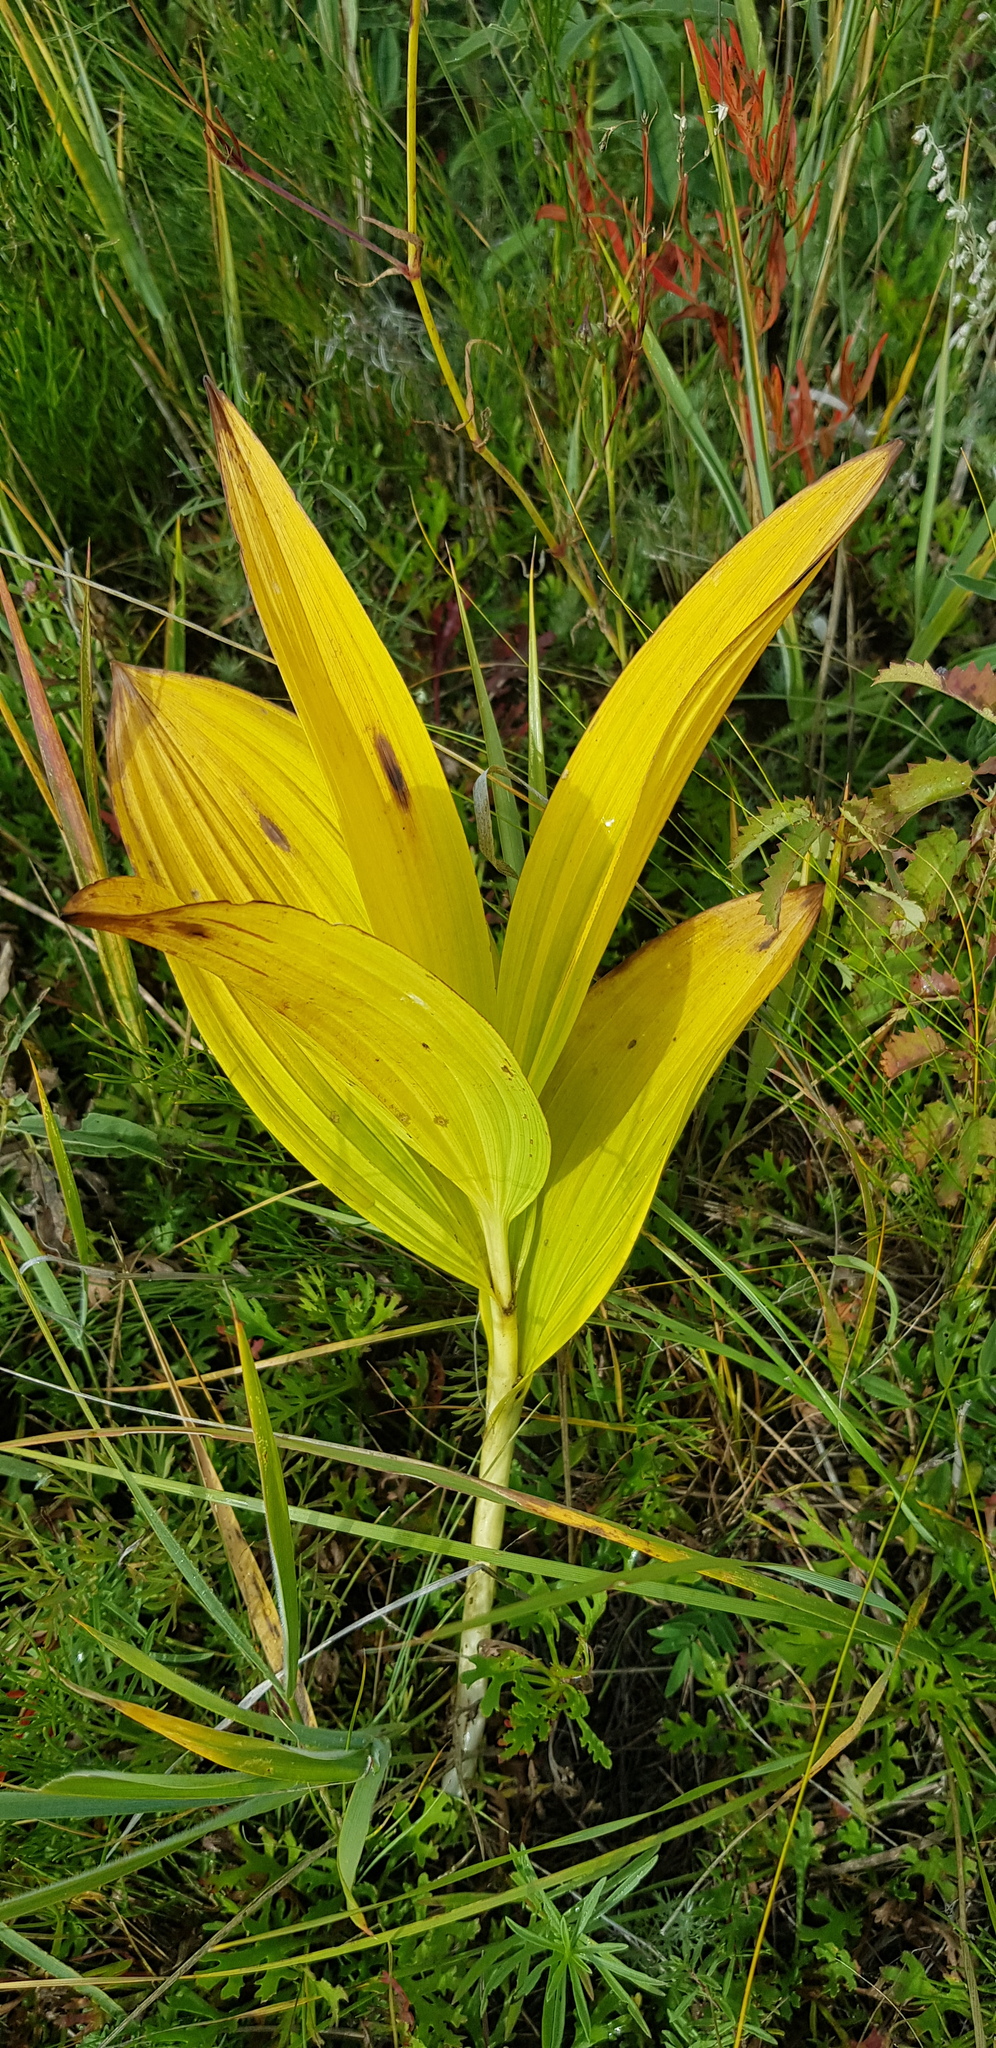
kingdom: Plantae
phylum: Tracheophyta
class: Liliopsida
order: Liliales
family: Melanthiaceae
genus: Veratrum
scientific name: Veratrum nigrum
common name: Black veratrum
